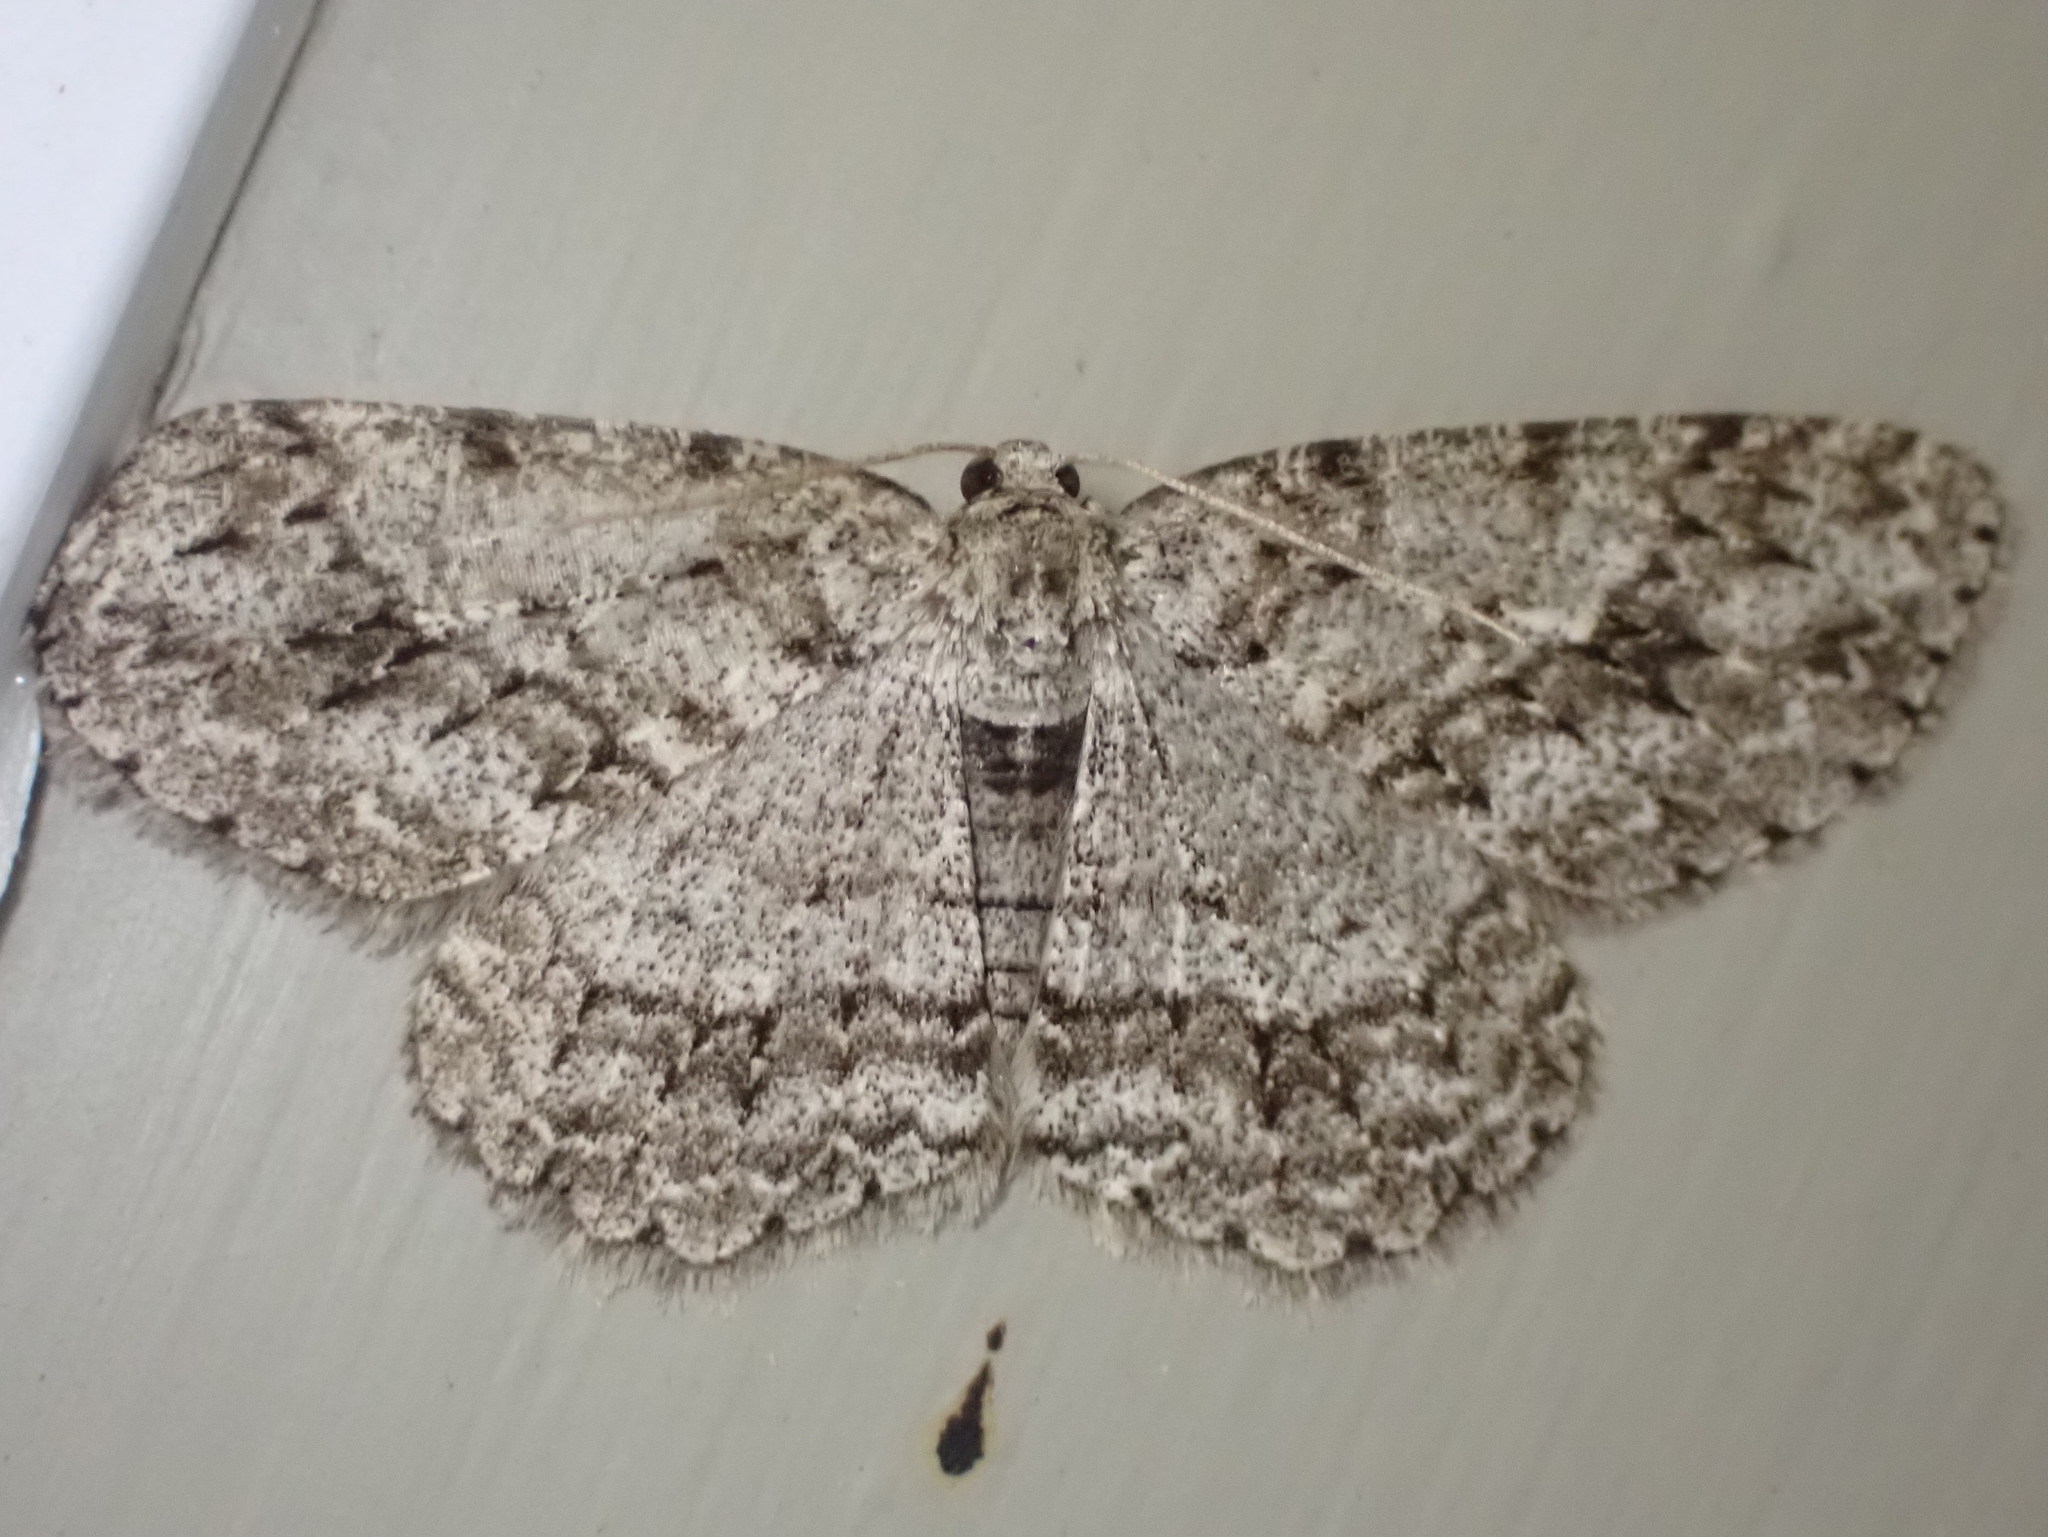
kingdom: Animalia
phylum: Arthropoda
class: Insecta
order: Lepidoptera
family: Geometridae
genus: Ectropis
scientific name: Ectropis crepuscularia
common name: Engrailed
